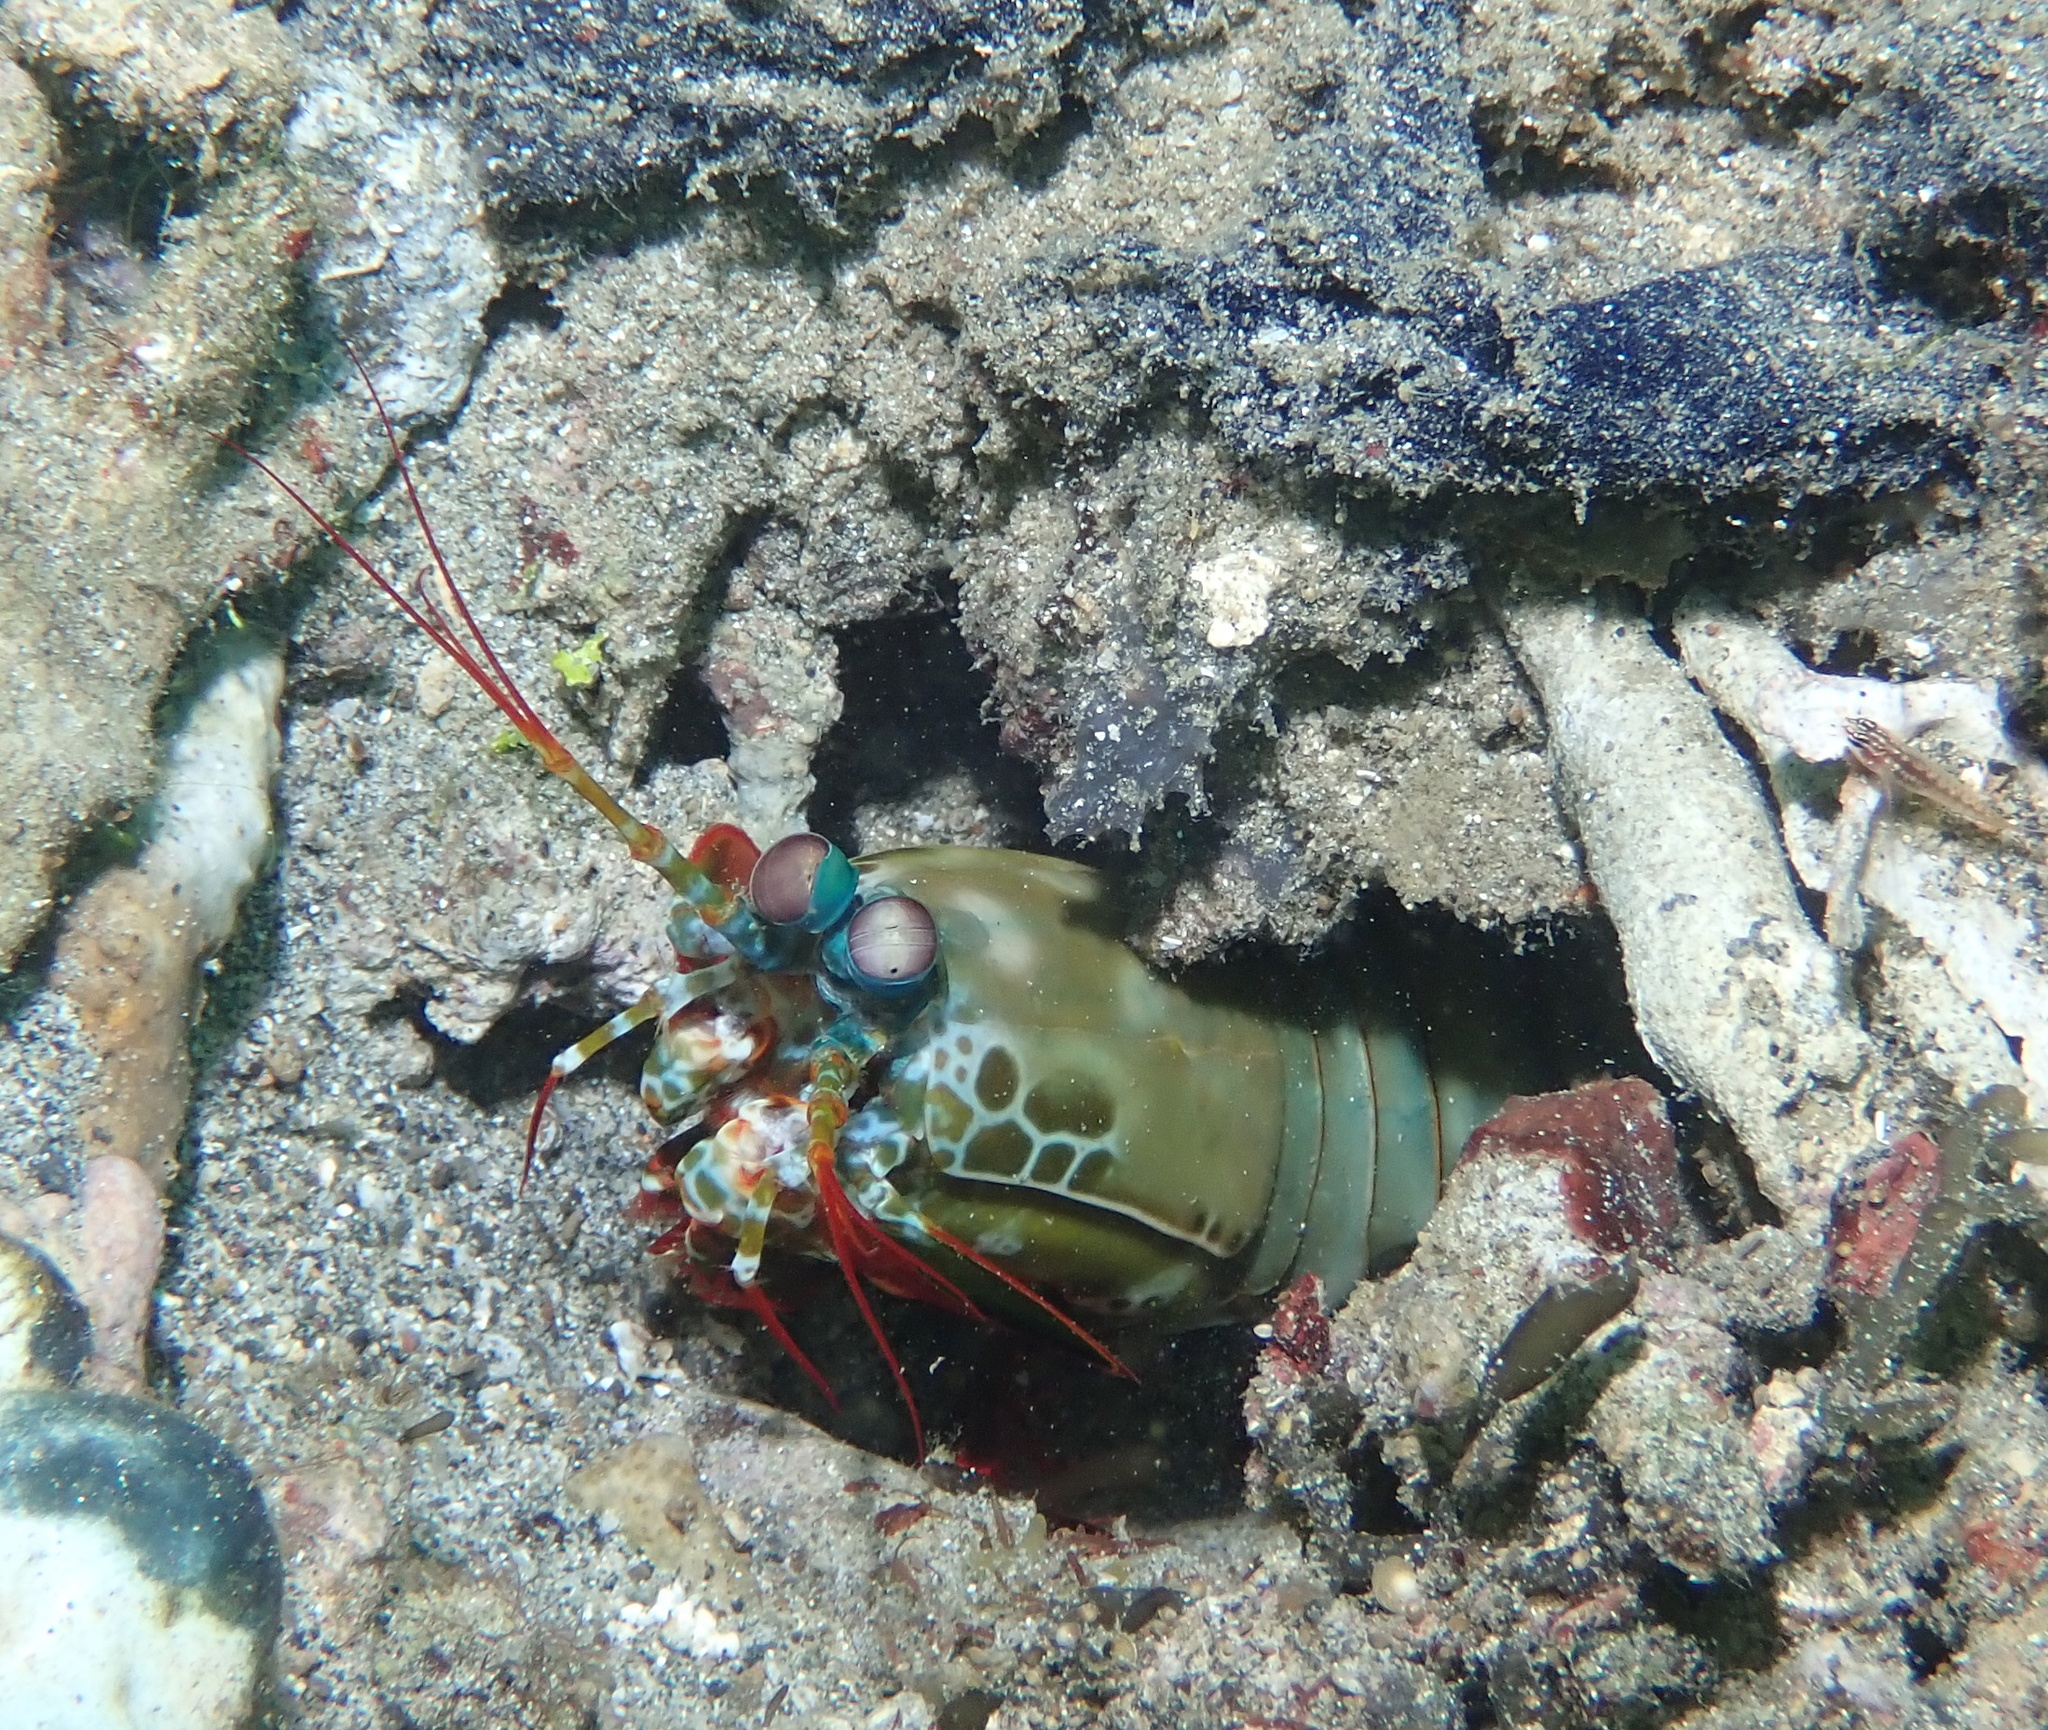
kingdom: Animalia
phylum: Arthropoda
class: Malacostraca
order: Stomatopoda
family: Odontodactylidae
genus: Odontodactylus
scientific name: Odontodactylus scyllarus
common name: Peacock mantis shrimp
